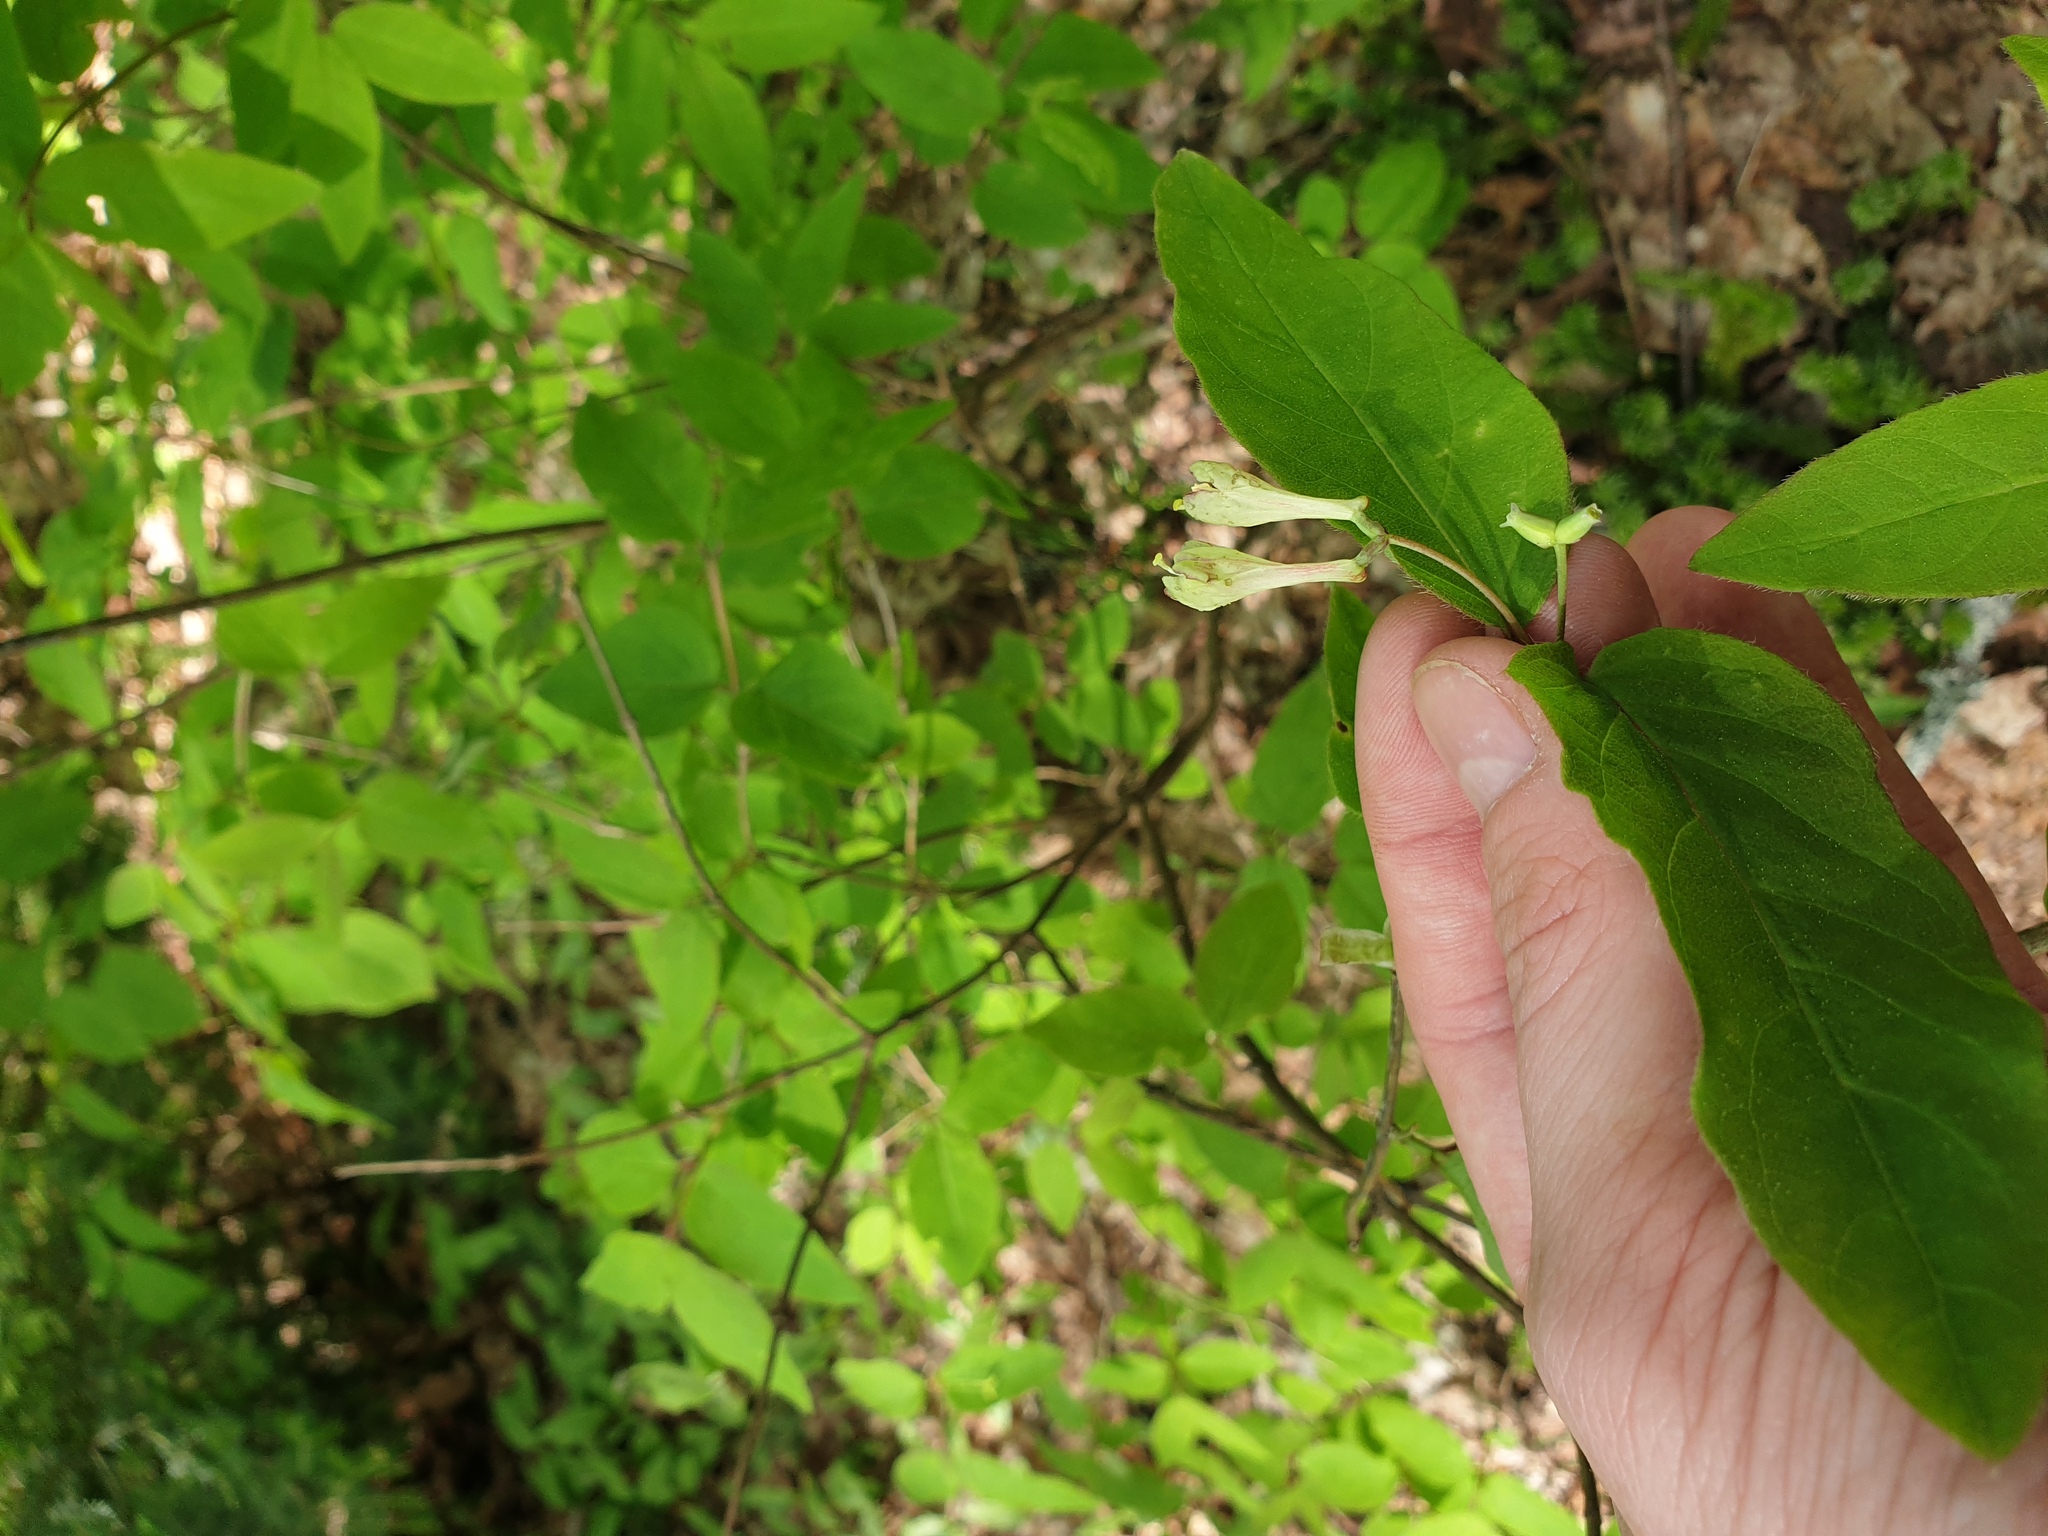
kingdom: Plantae
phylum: Tracheophyta
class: Magnoliopsida
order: Dipsacales
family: Caprifoliaceae
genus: Lonicera
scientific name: Lonicera canadensis
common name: American fly-honeysuckle
